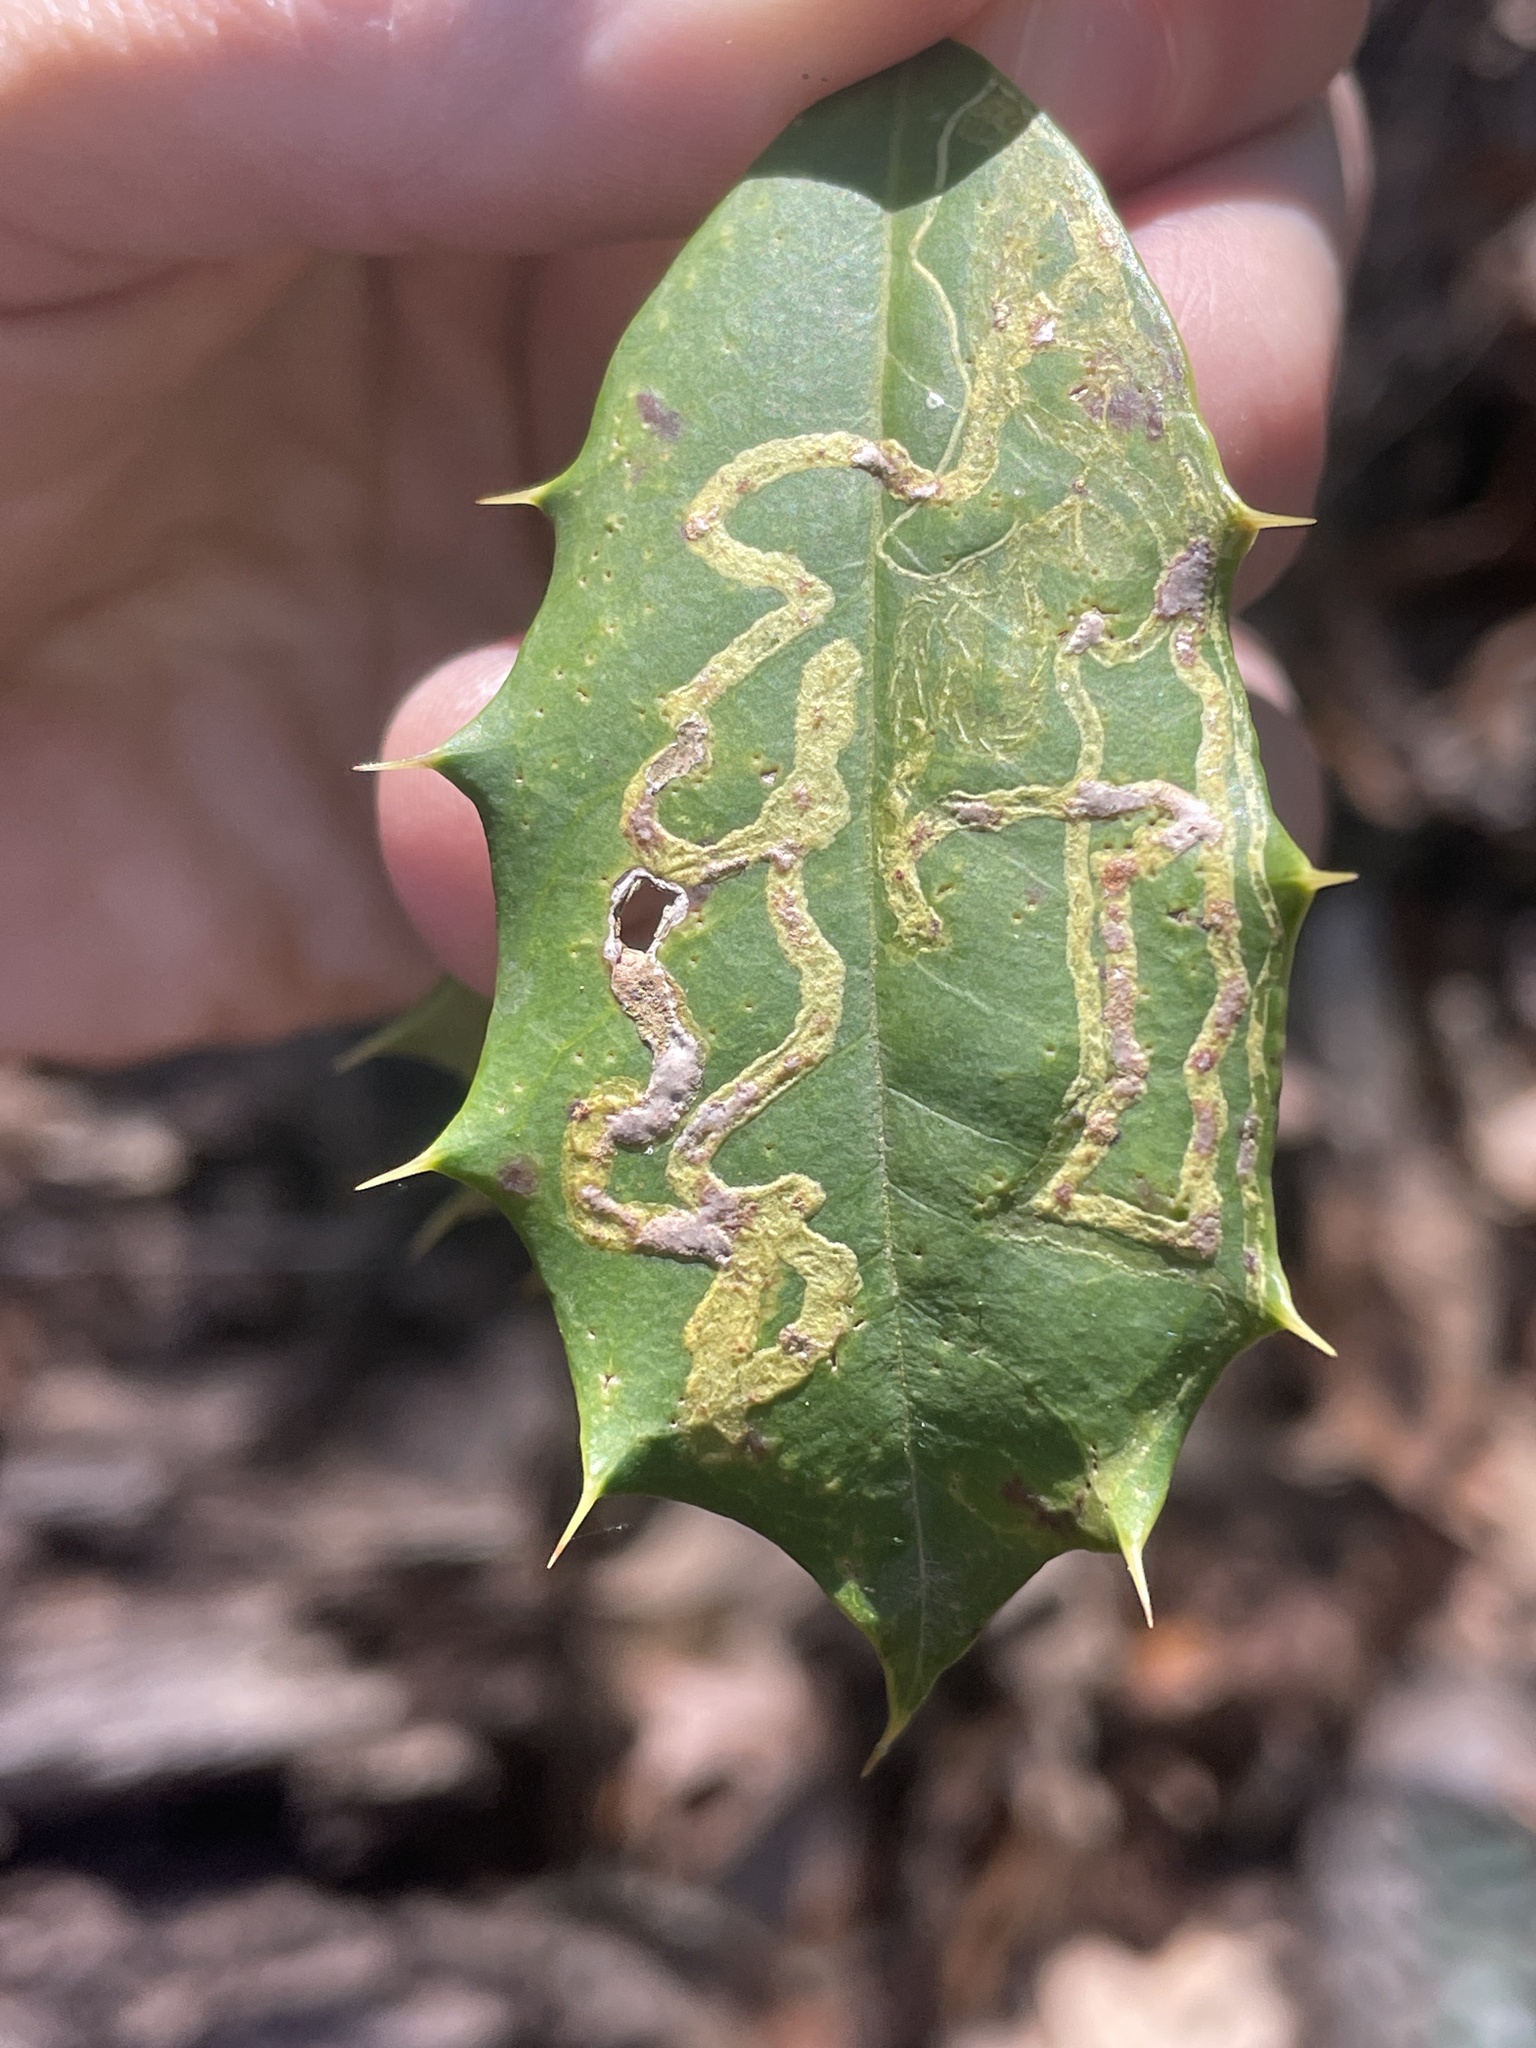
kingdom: Animalia
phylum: Arthropoda
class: Insecta
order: Diptera
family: Agromyzidae
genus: Phytomyza
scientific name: Phytomyza opacae
